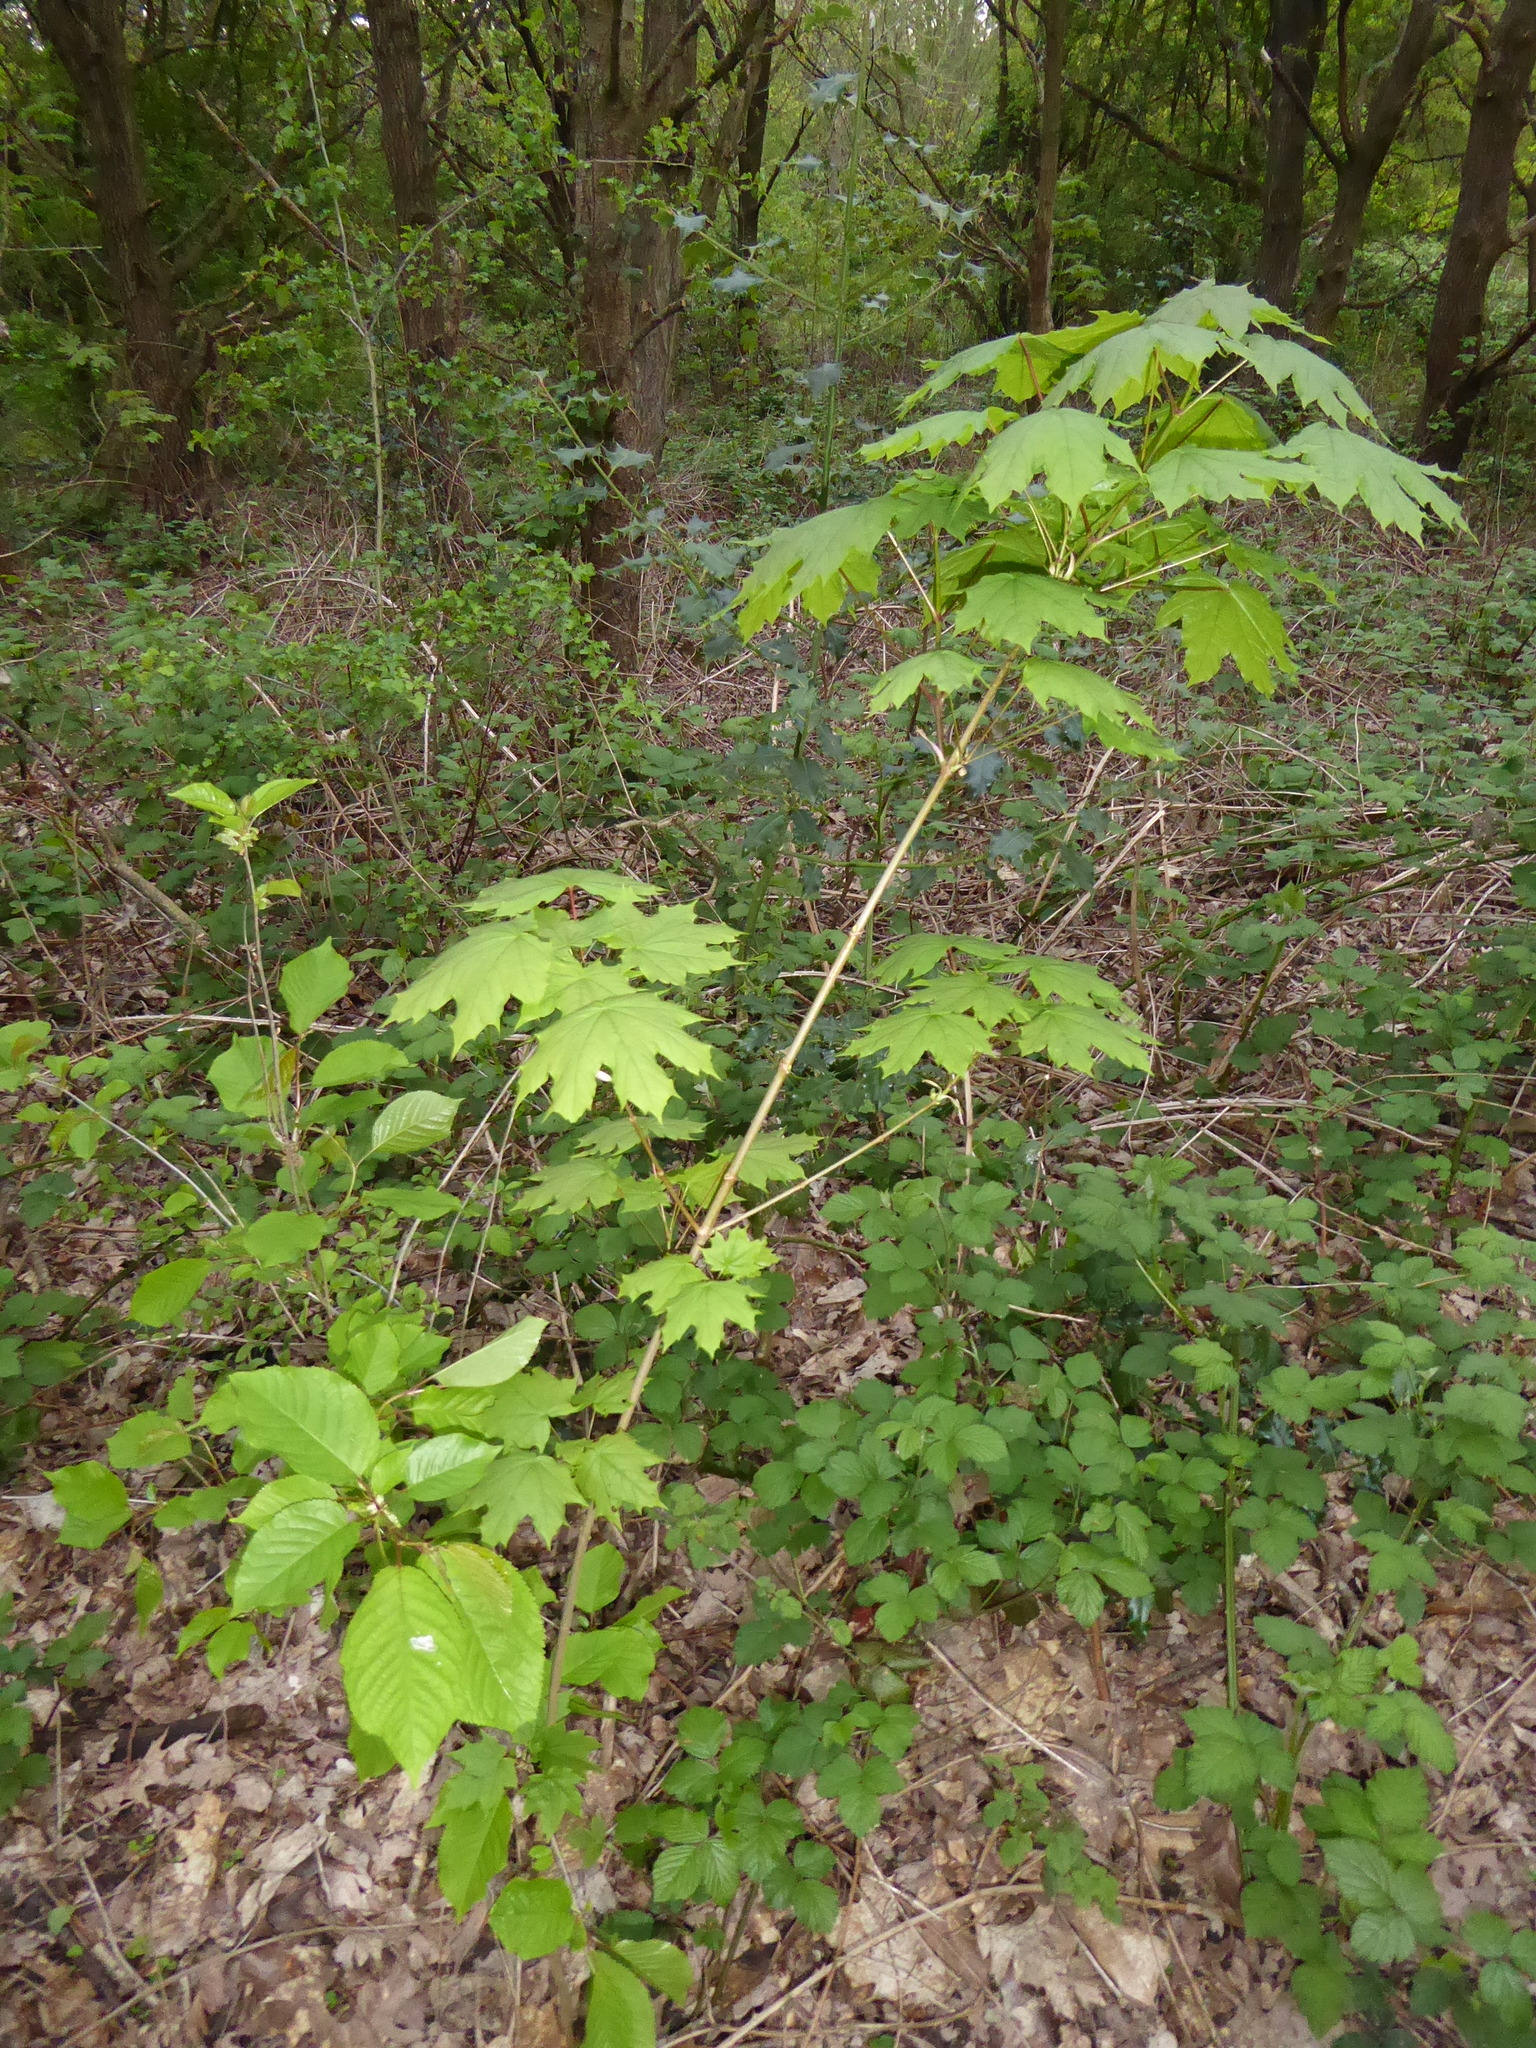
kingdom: Plantae
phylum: Tracheophyta
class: Magnoliopsida
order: Sapindales
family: Sapindaceae
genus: Acer
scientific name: Acer platanoides
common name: Norway maple
